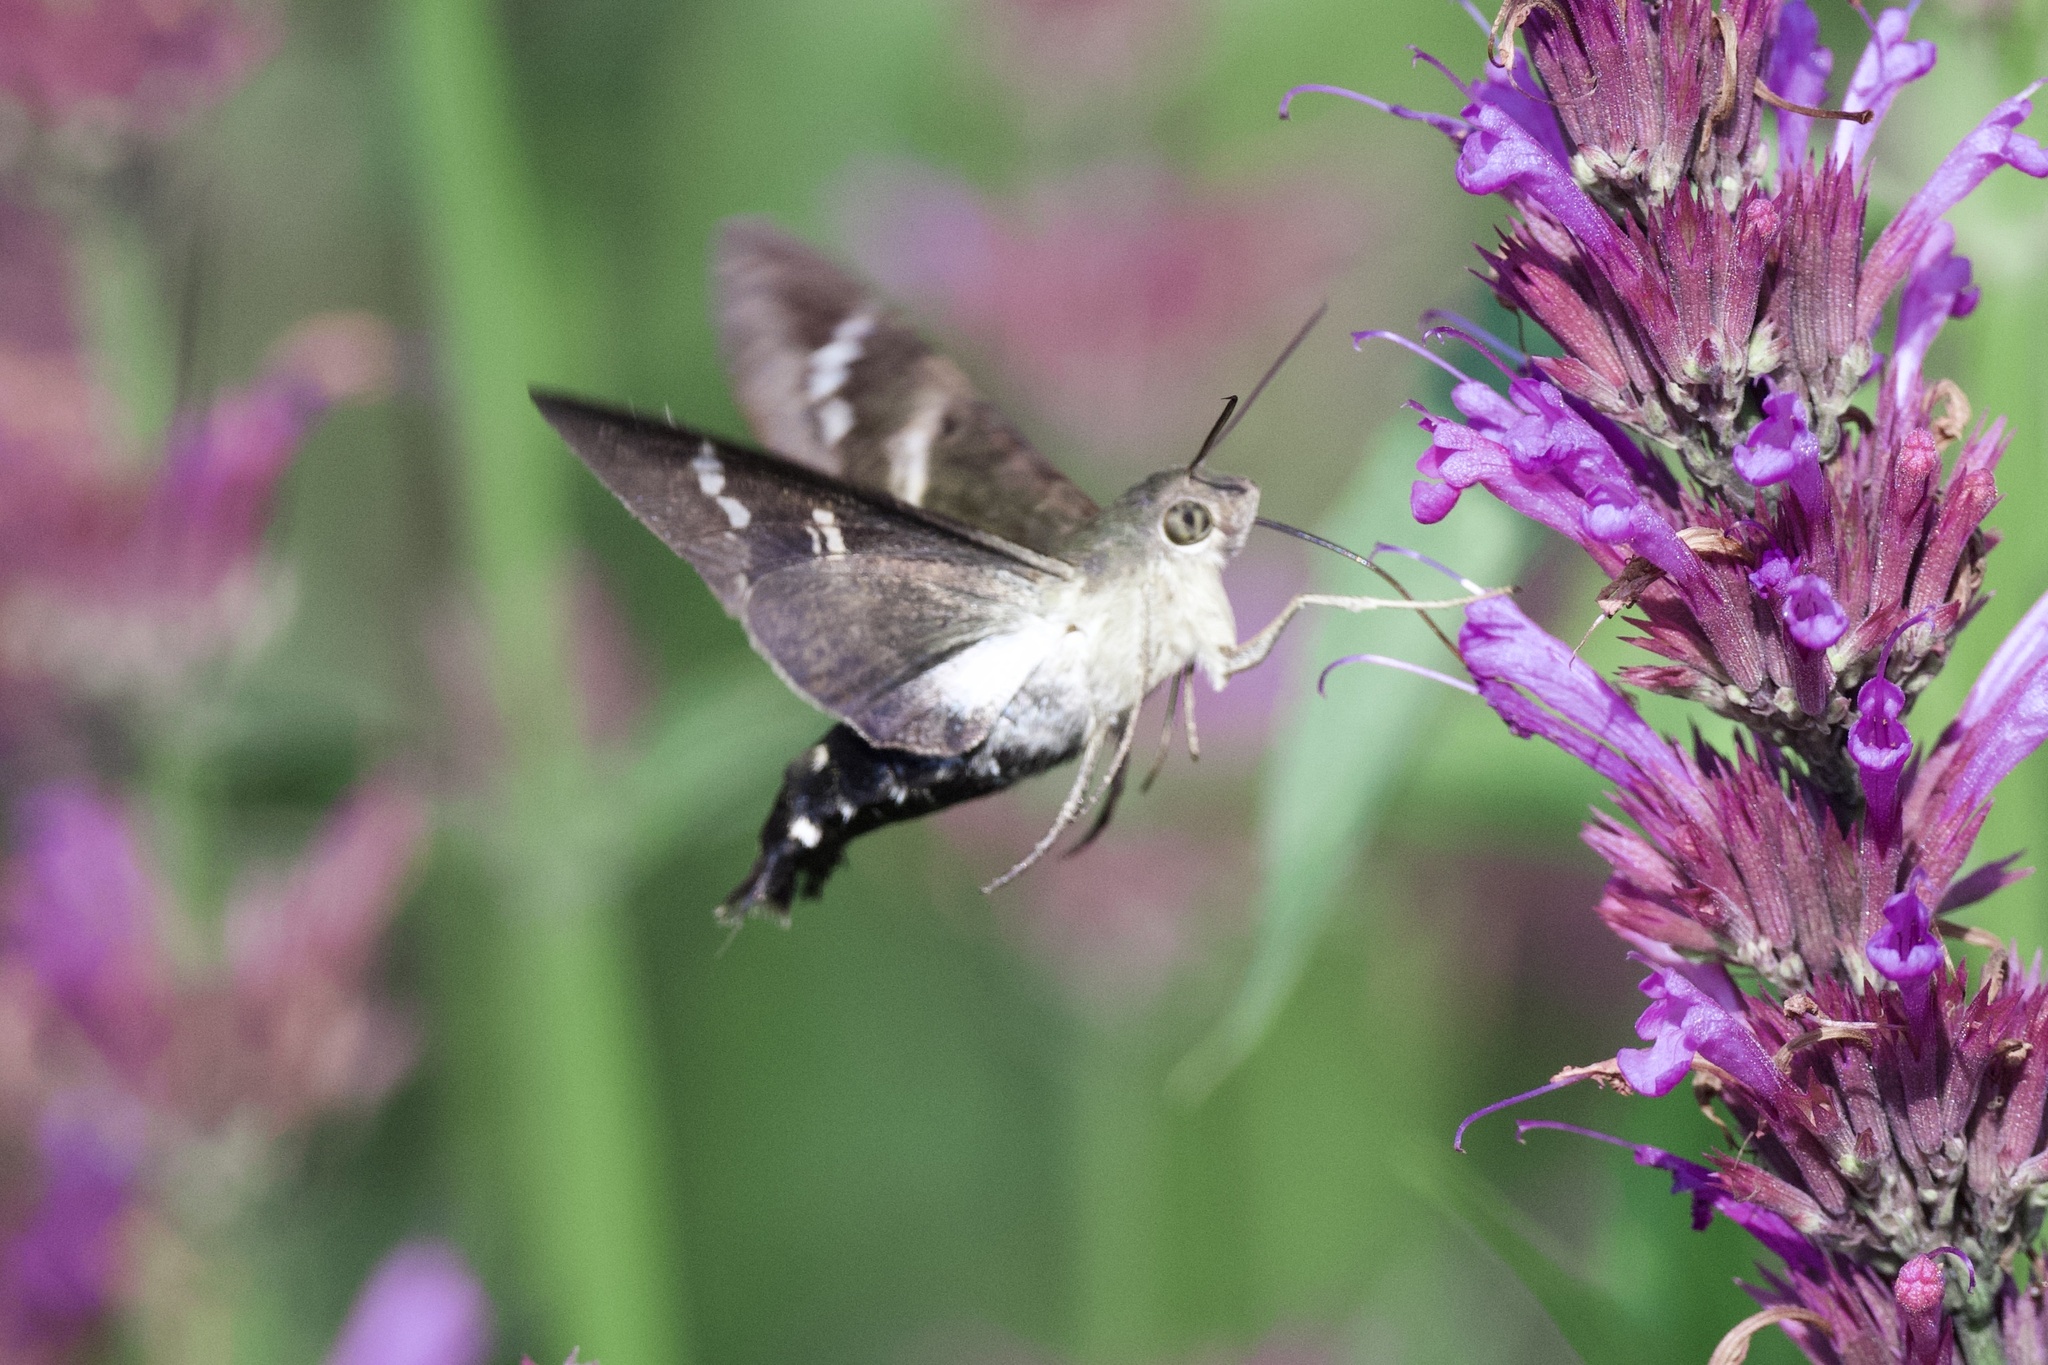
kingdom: Animalia
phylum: Arthropoda
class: Insecta
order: Lepidoptera
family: Sphingidae
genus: Aellopos
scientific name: Aellopos clavipes
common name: Clavipes sphinx
